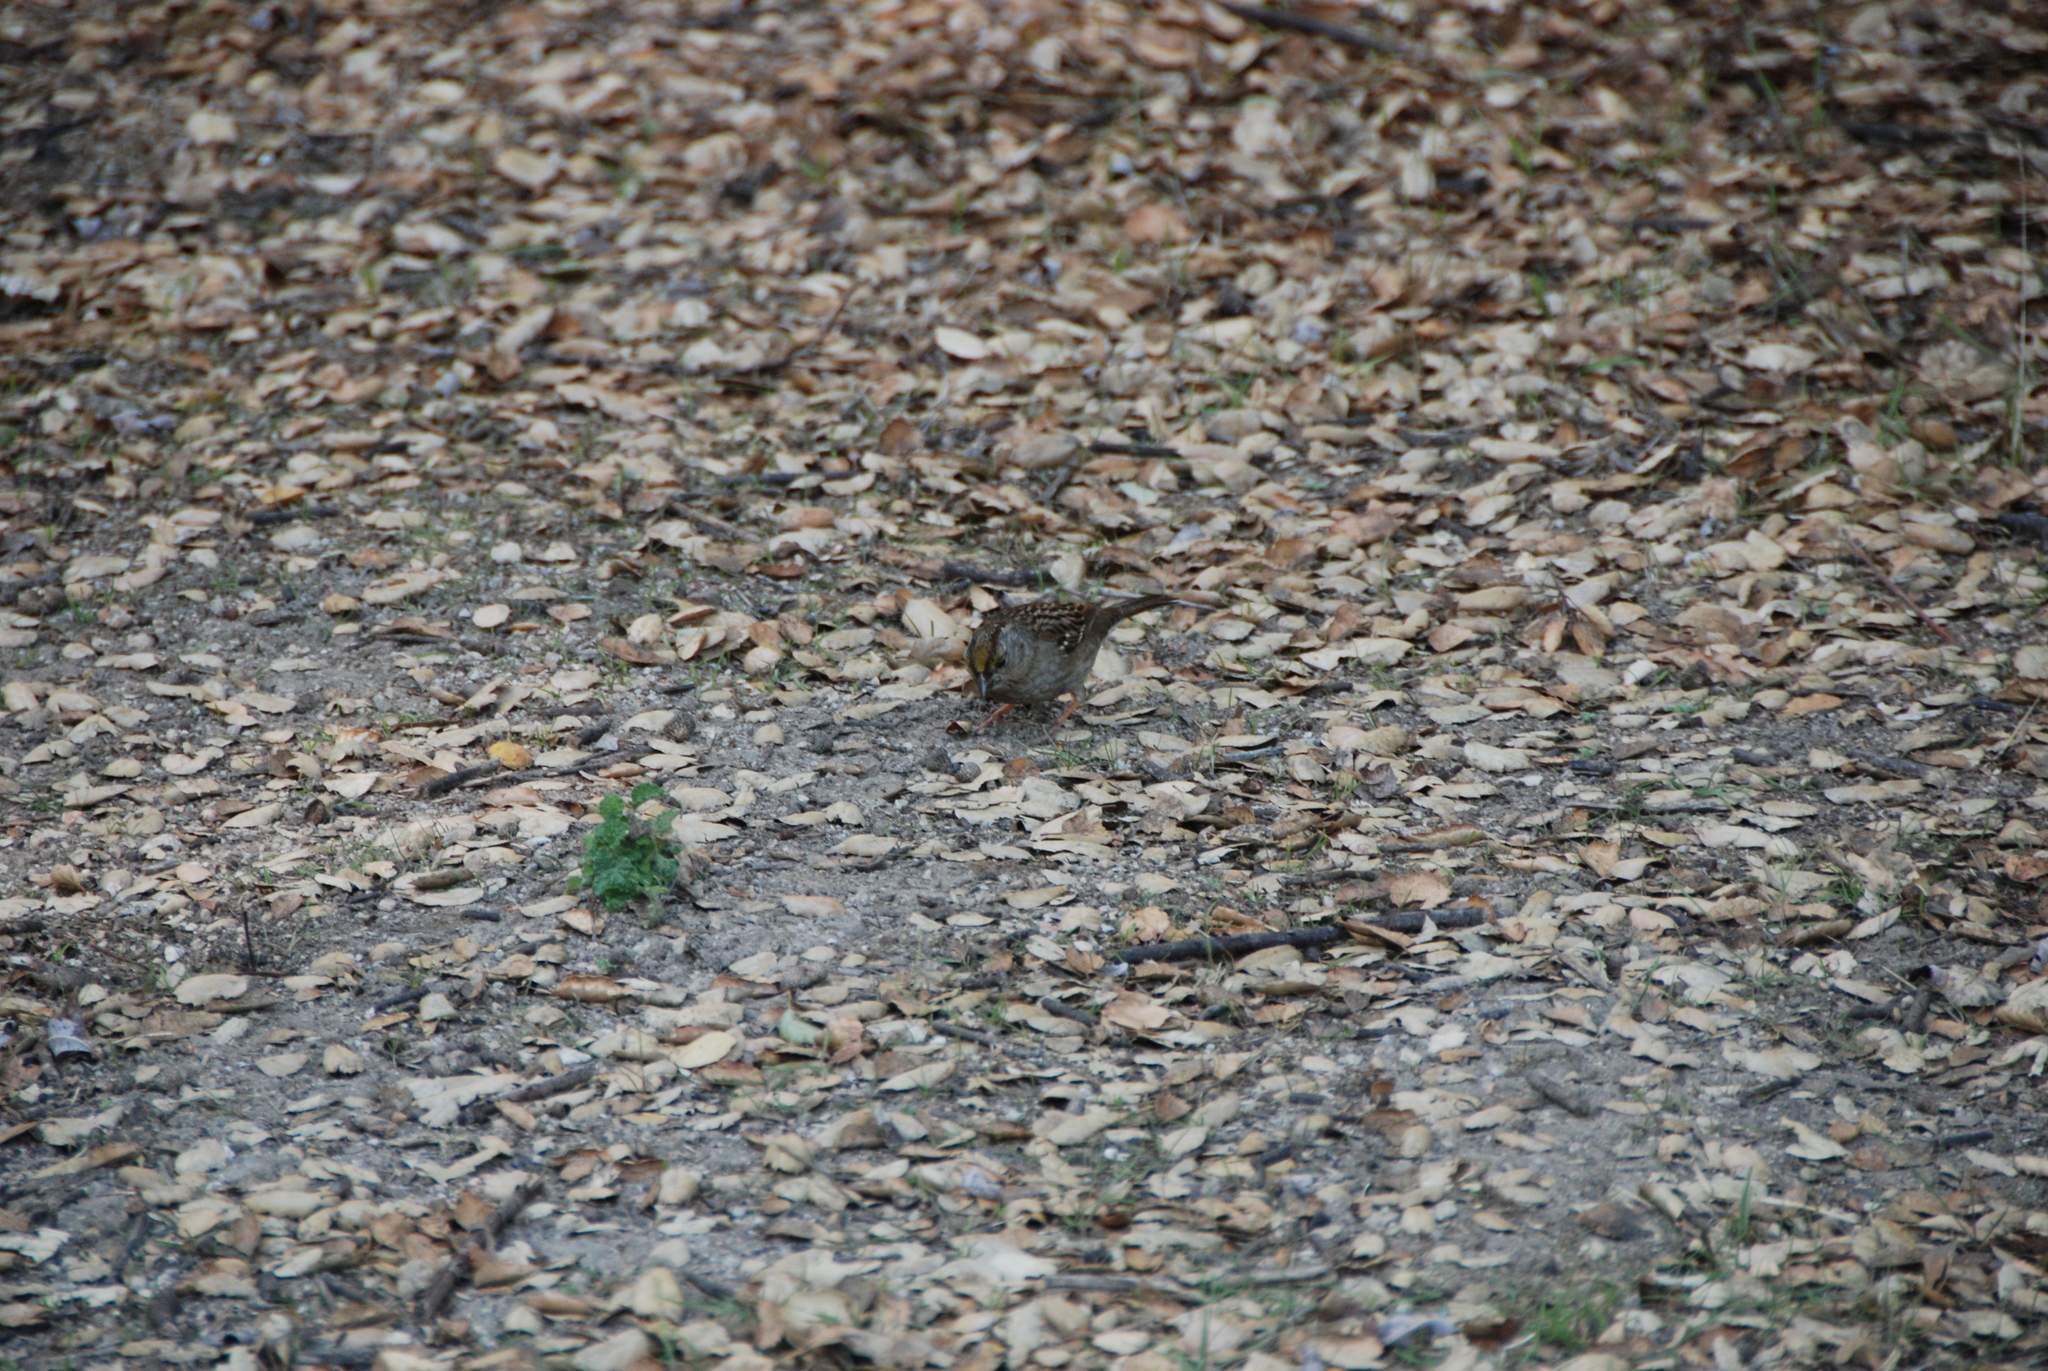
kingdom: Animalia
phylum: Chordata
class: Aves
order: Passeriformes
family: Passerellidae
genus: Zonotrichia
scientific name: Zonotrichia atricapilla
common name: Golden-crowned sparrow
